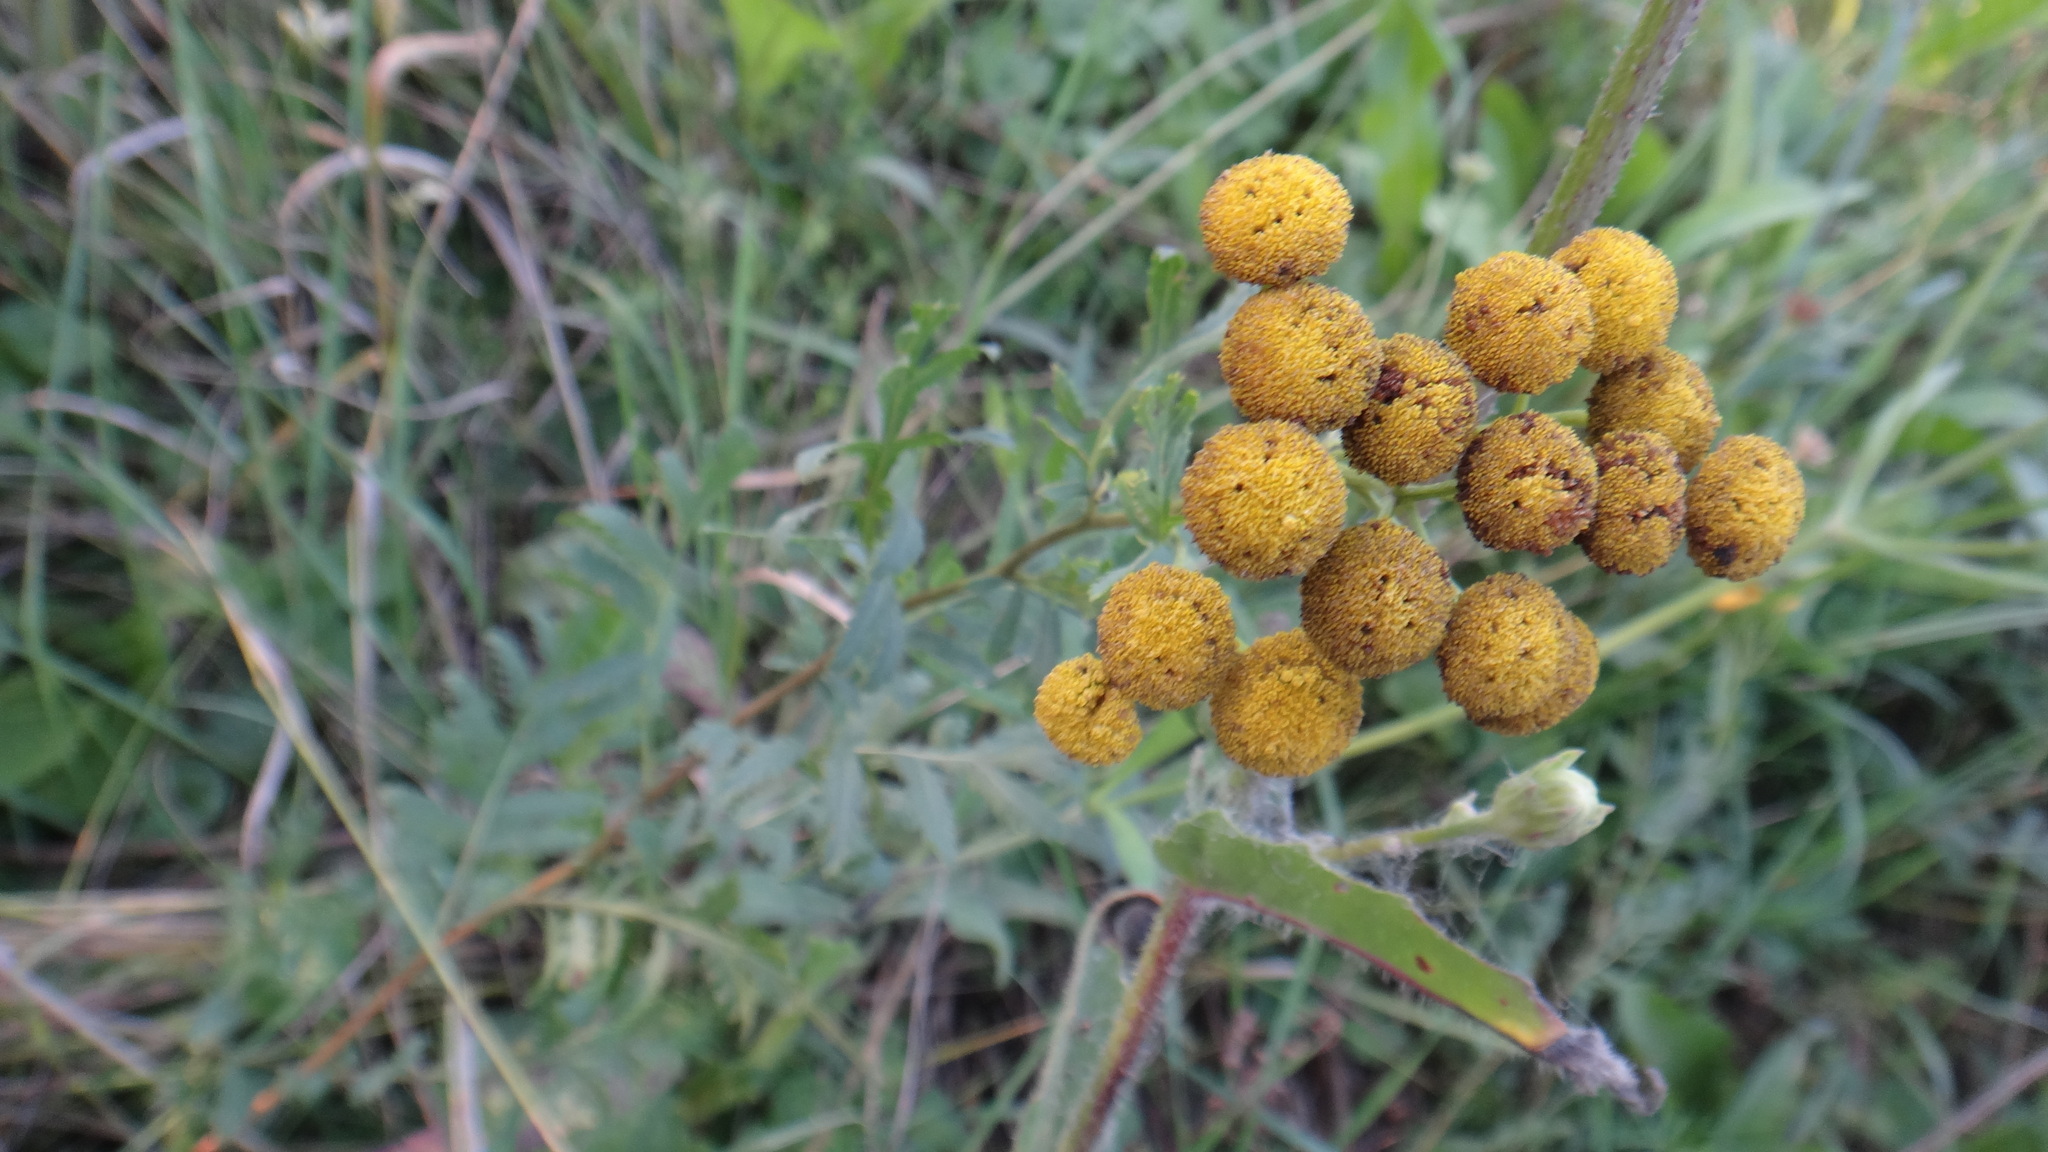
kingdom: Plantae
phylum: Tracheophyta
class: Magnoliopsida
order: Asterales
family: Asteraceae
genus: Tanacetum
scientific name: Tanacetum vulgare
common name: Common tansy
